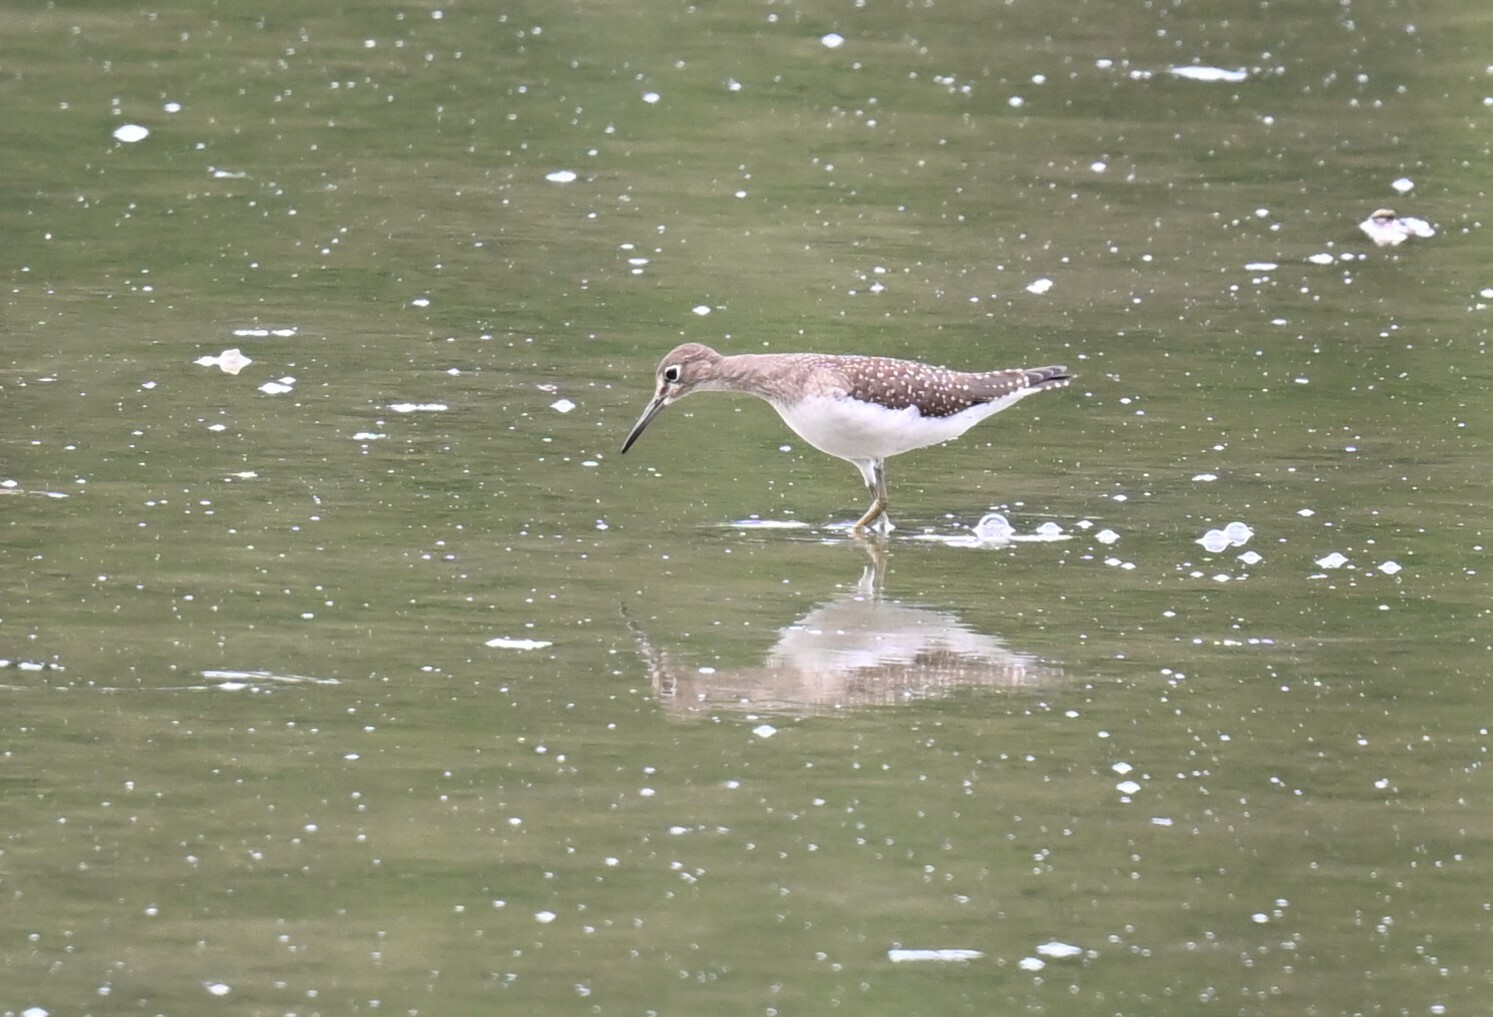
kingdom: Animalia
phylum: Chordata
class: Aves
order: Charadriiformes
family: Scolopacidae
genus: Tringa
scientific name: Tringa solitaria
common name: Solitary sandpiper
